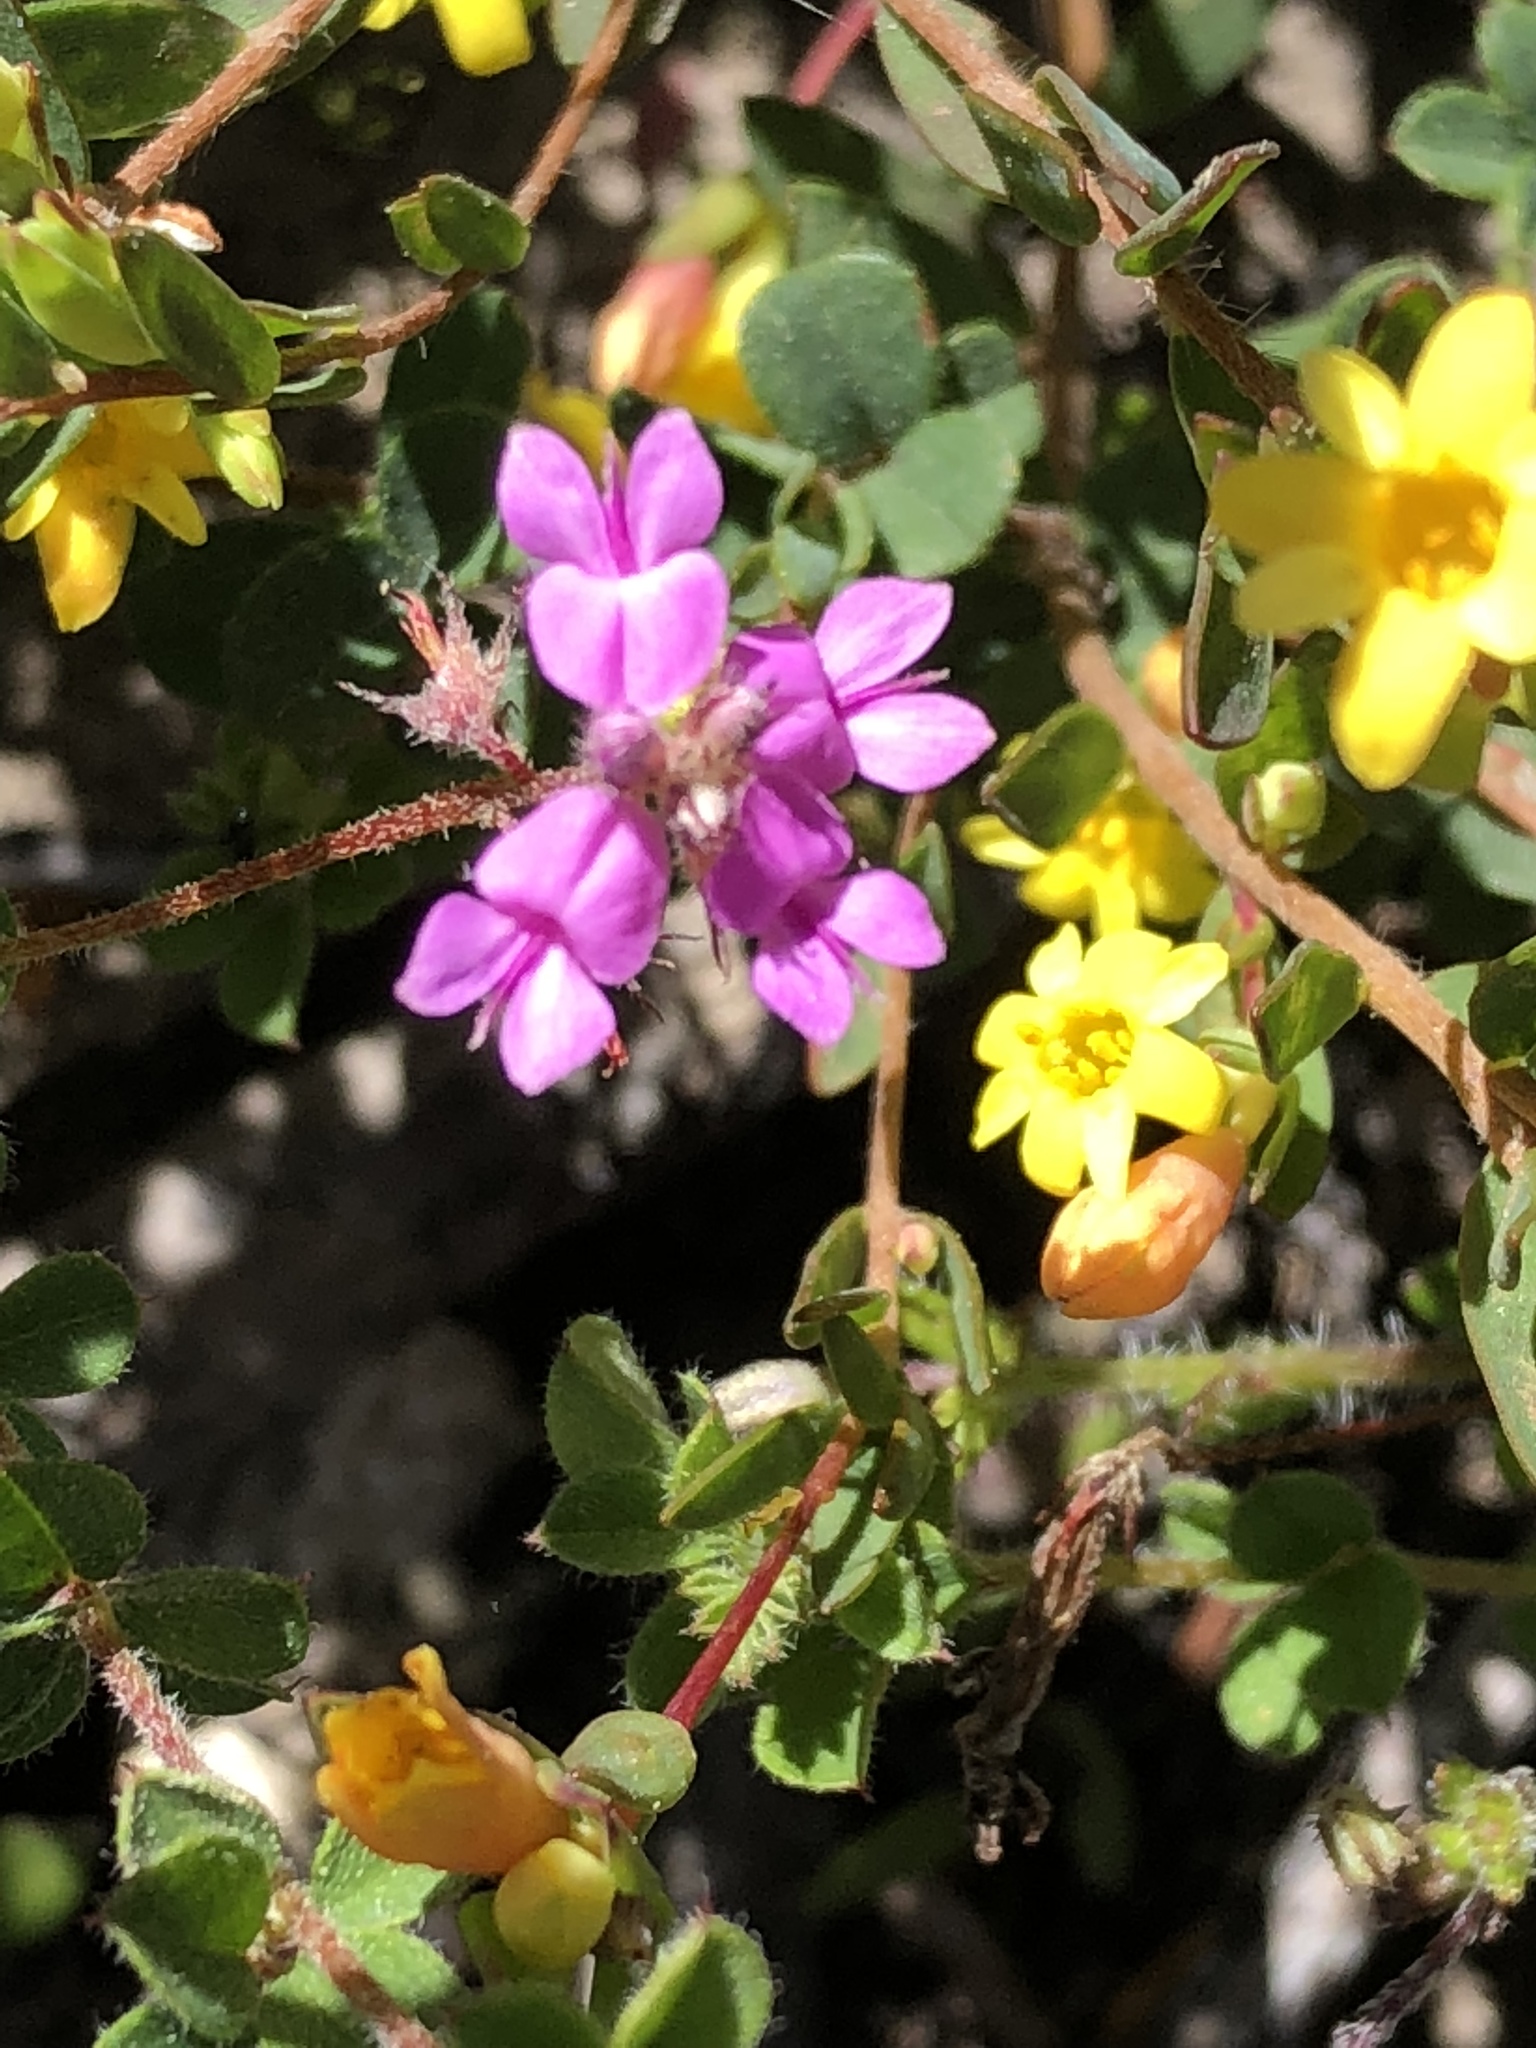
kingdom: Plantae
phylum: Tracheophyta
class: Magnoliopsida
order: Fabales
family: Fabaceae
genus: Indigofera
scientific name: Indigofera alopecuroides
